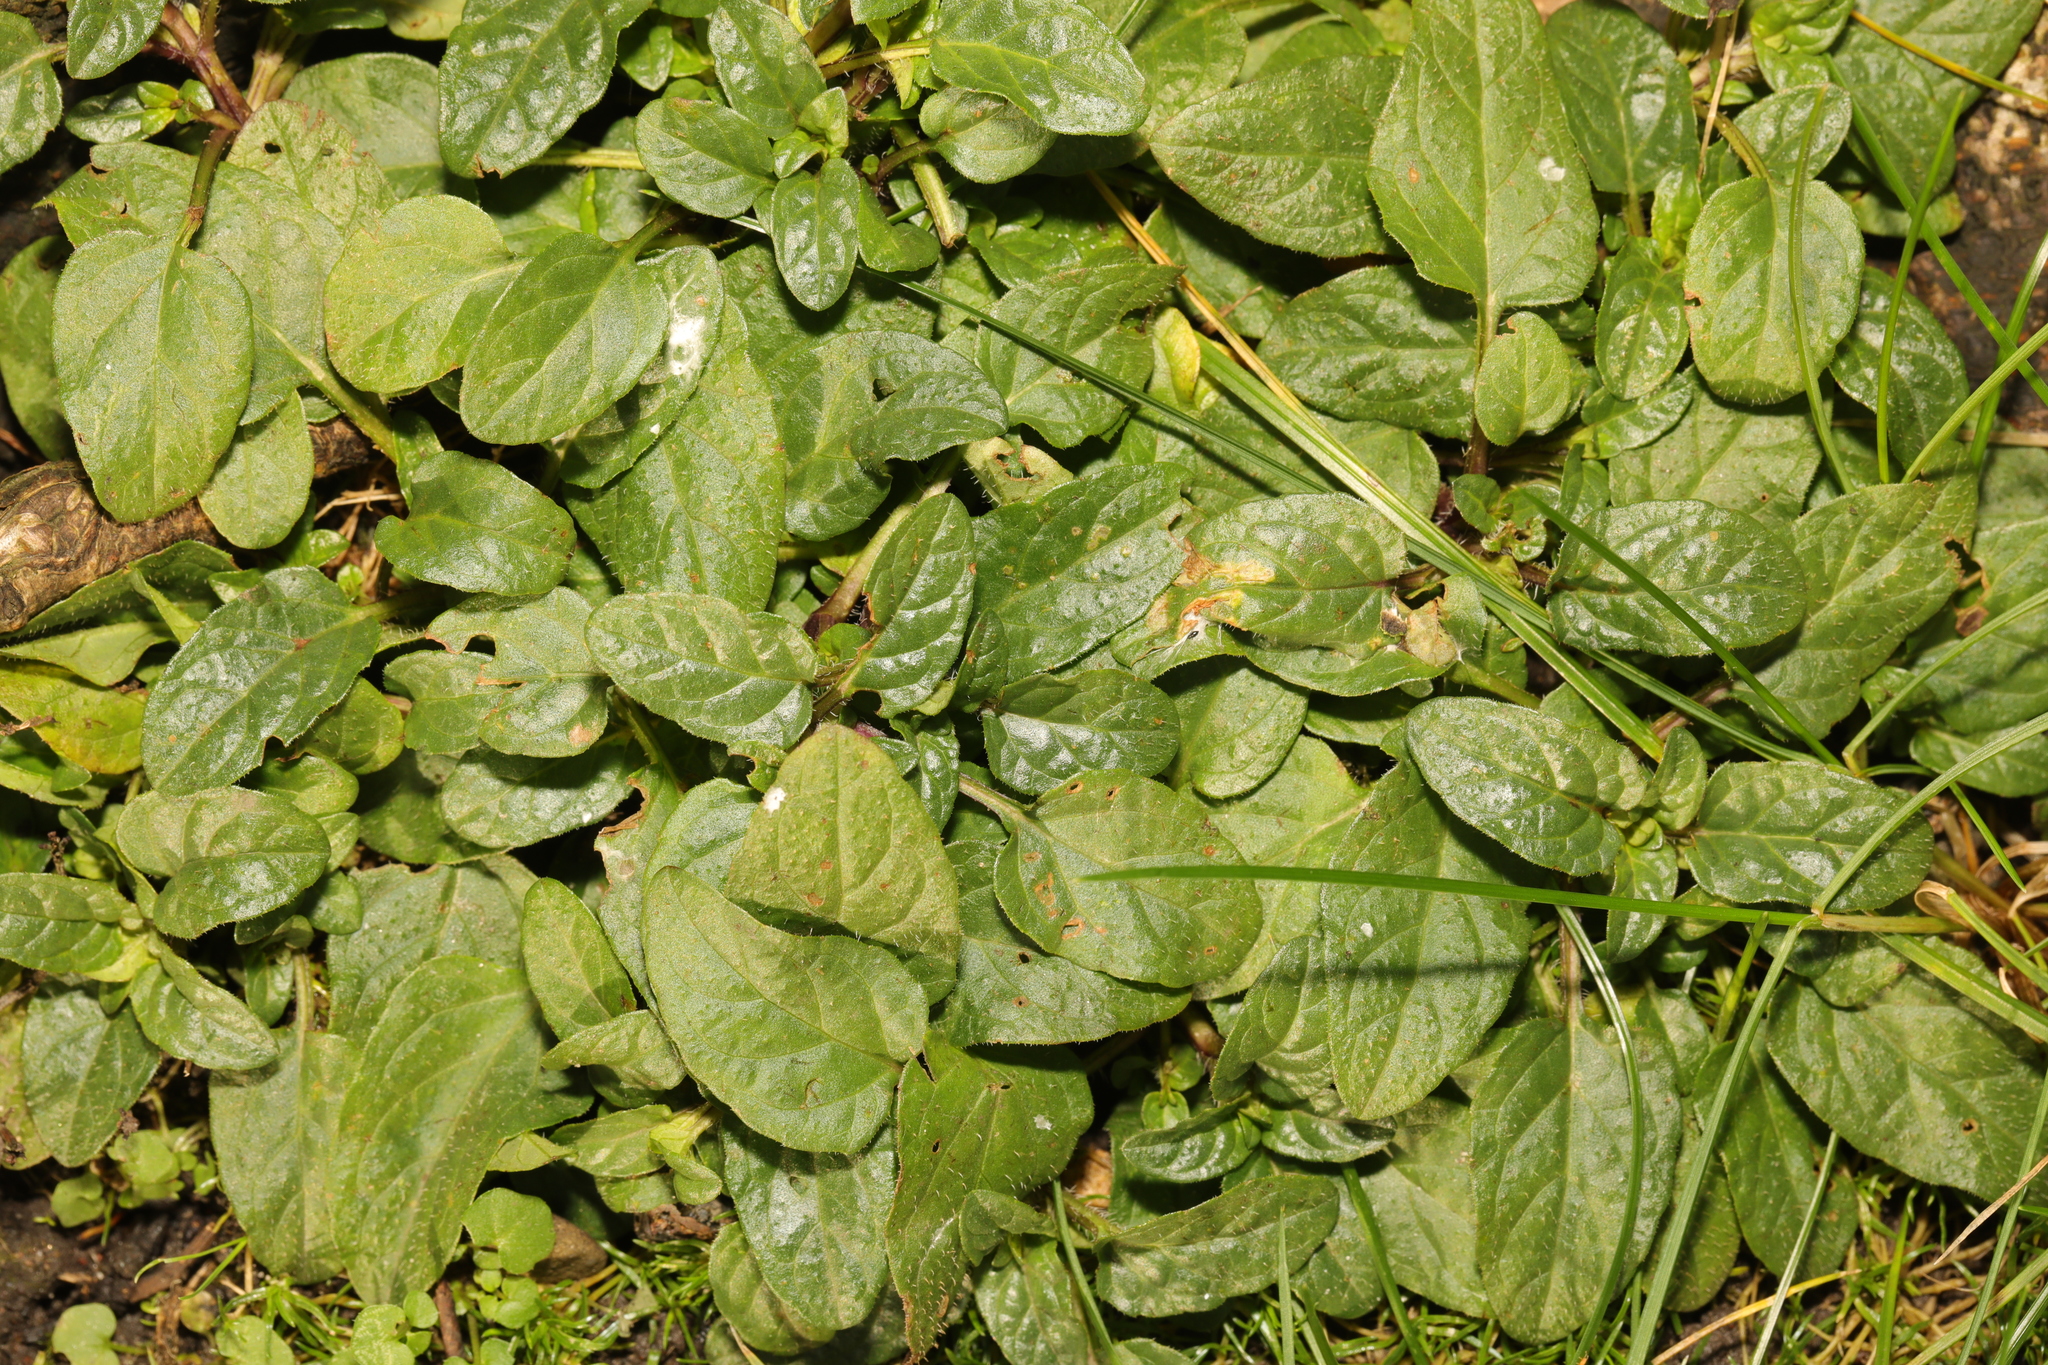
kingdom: Plantae
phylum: Tracheophyta
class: Magnoliopsida
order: Lamiales
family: Lamiaceae
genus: Prunella
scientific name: Prunella vulgaris
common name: Heal-all
